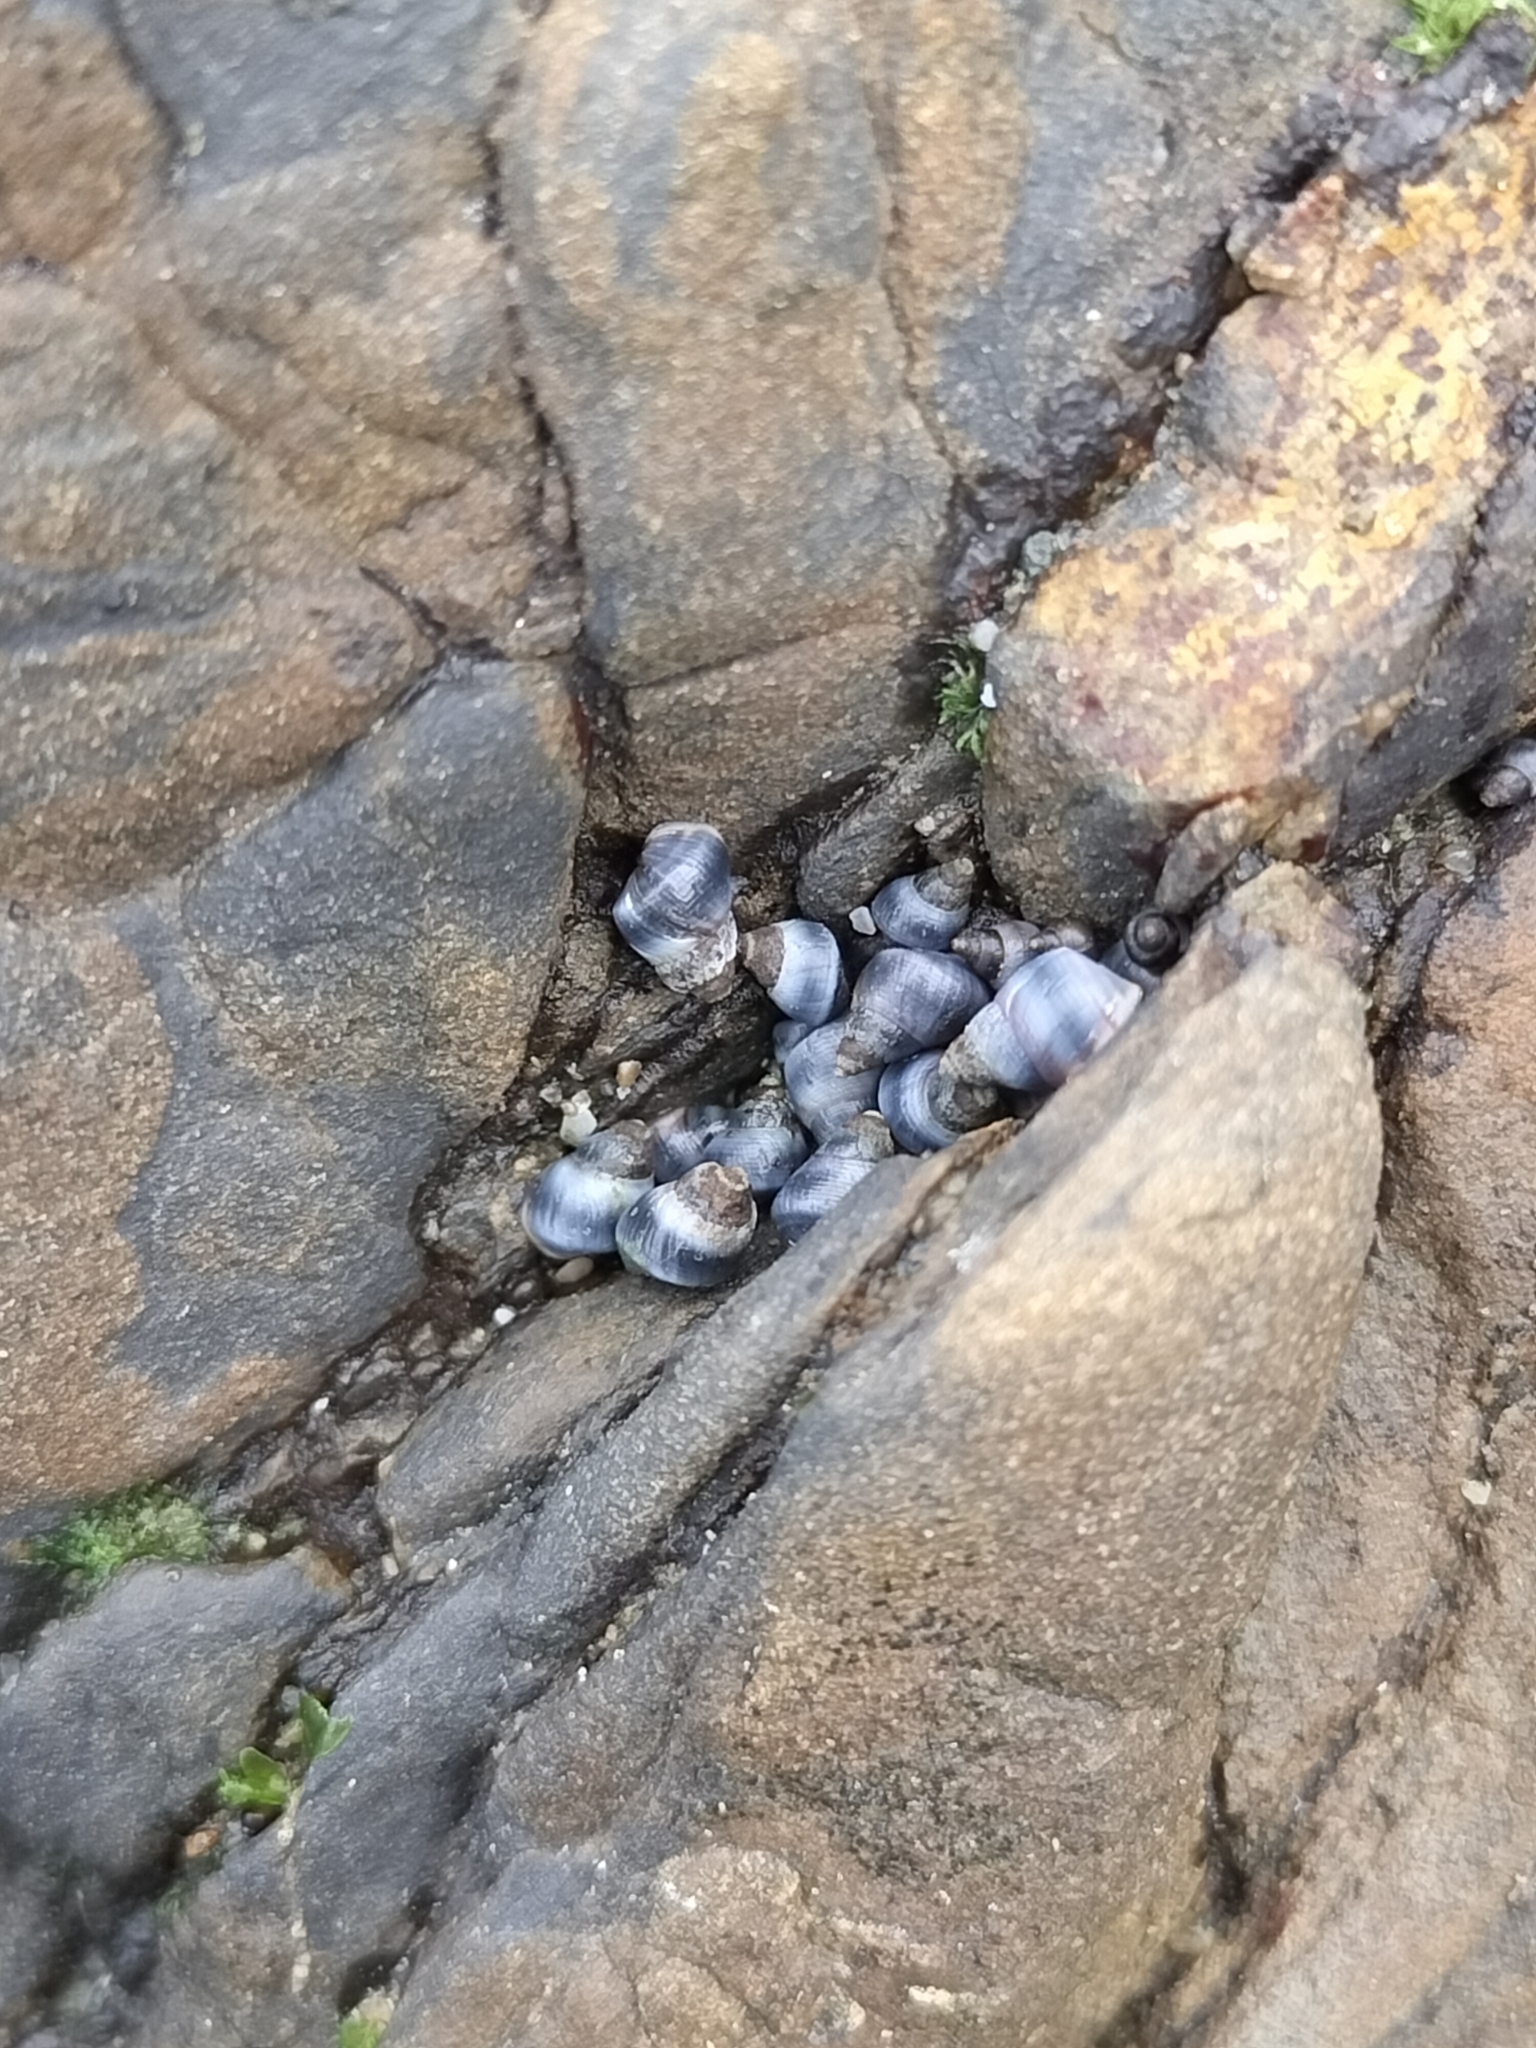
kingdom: Animalia
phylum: Mollusca
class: Gastropoda
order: Littorinimorpha
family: Littorinidae
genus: Austrolittorina
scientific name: Austrolittorina antipodum
